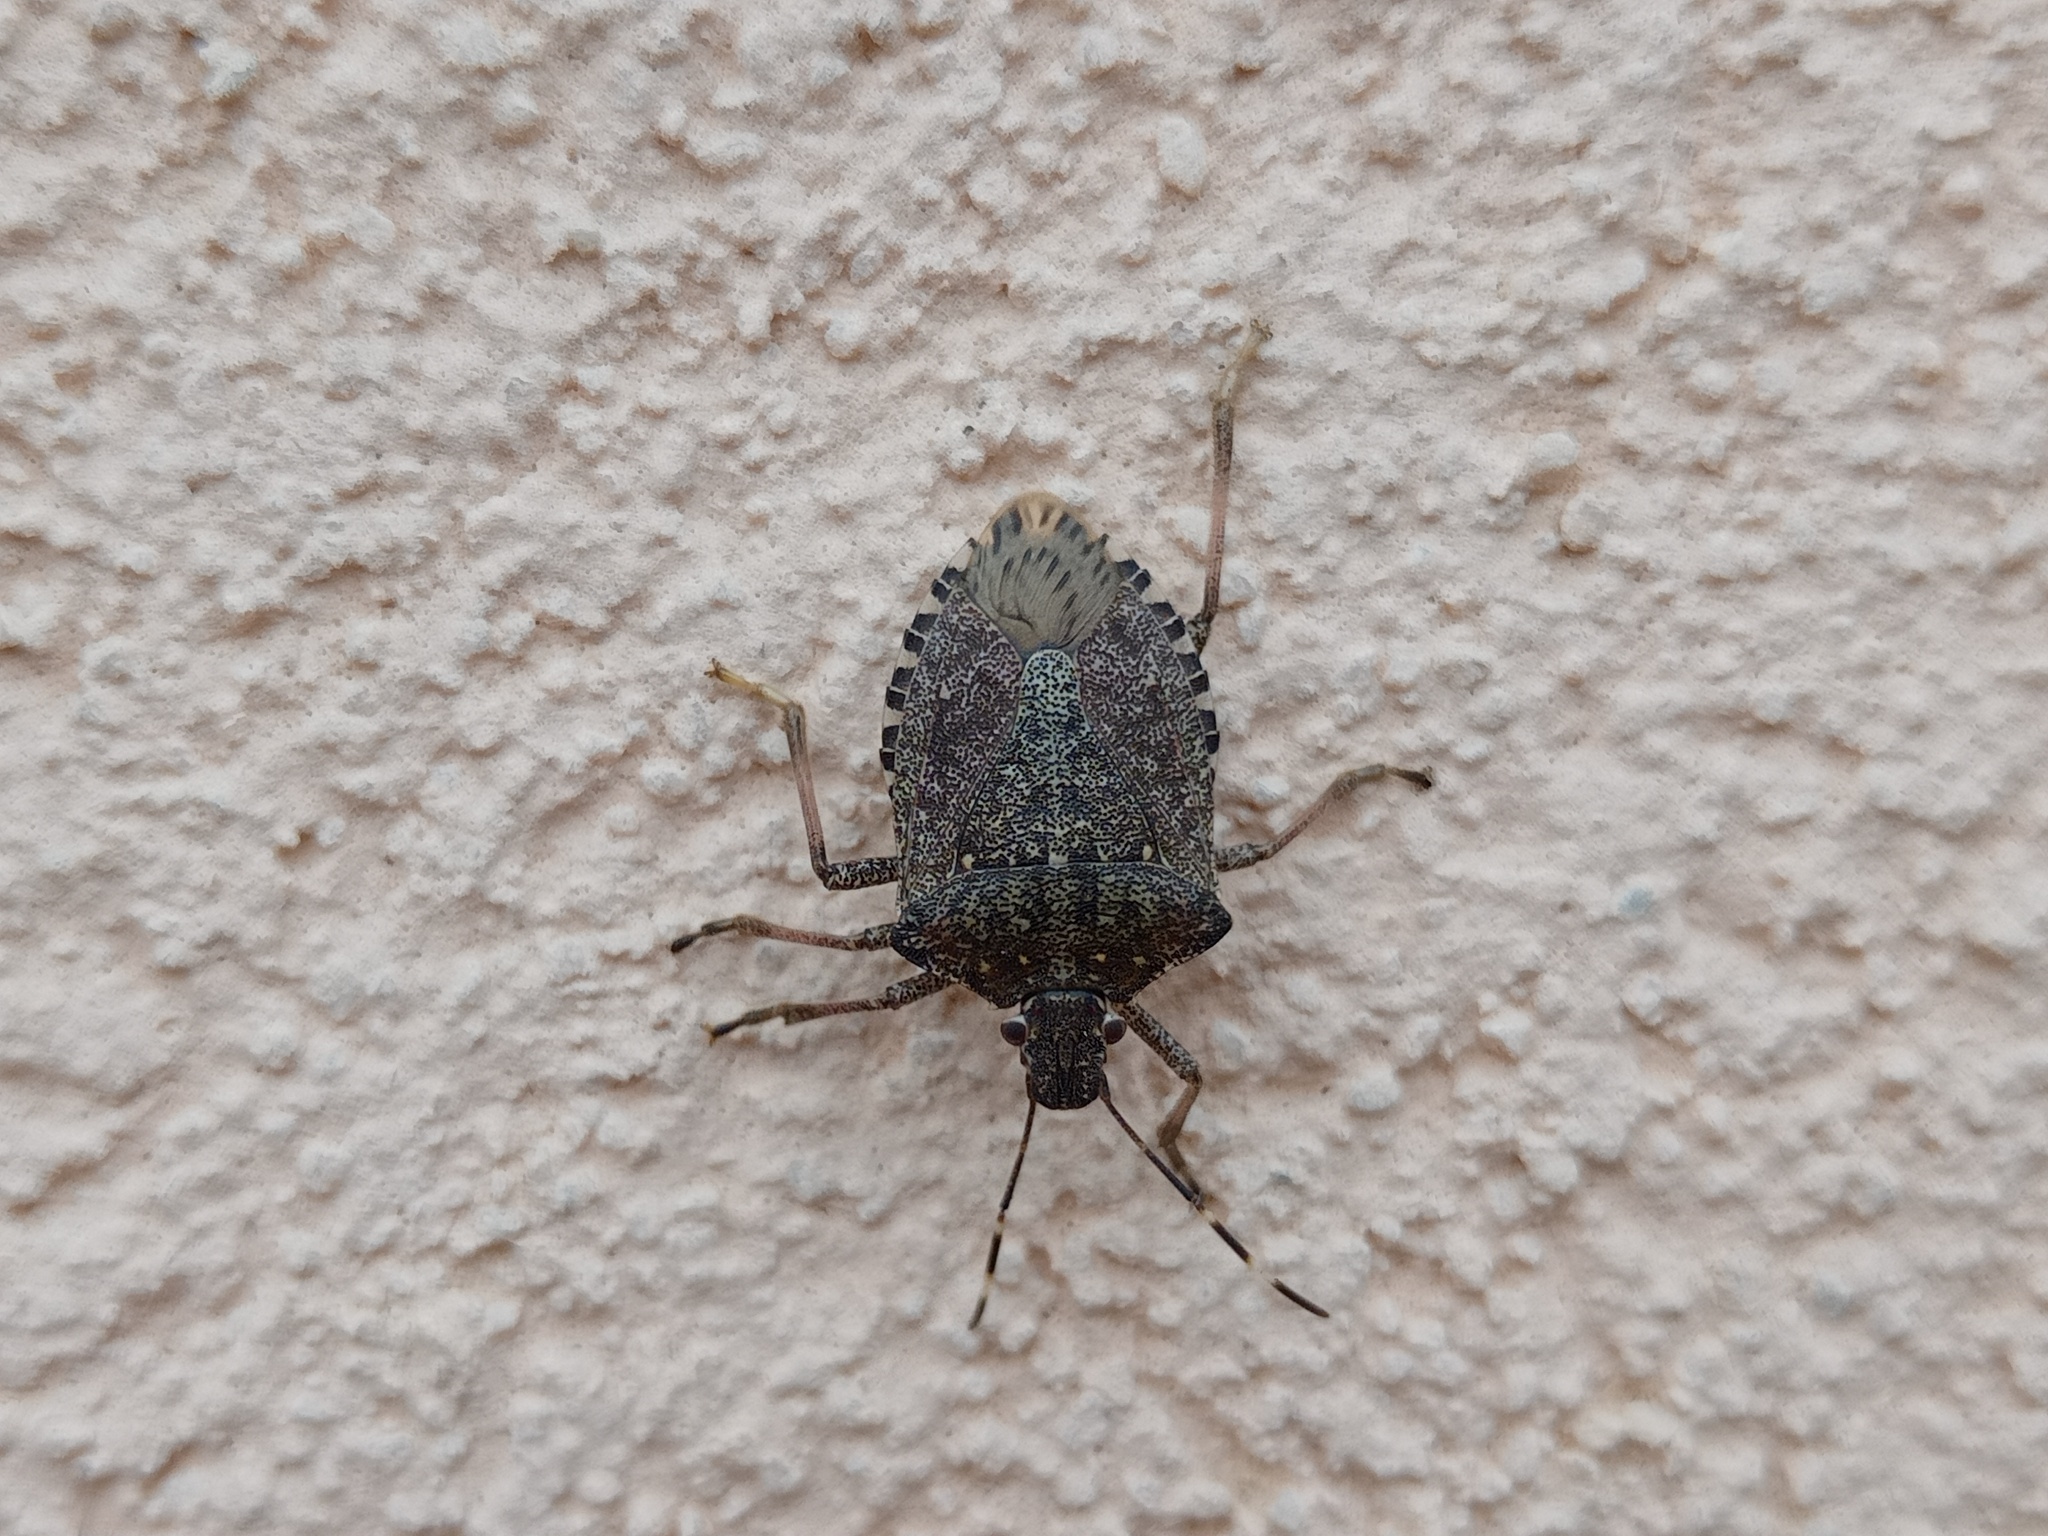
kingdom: Animalia
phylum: Arthropoda
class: Insecta
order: Hemiptera
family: Pentatomidae
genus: Halyomorpha
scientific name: Halyomorpha halys
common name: Brown marmorated stink bug
